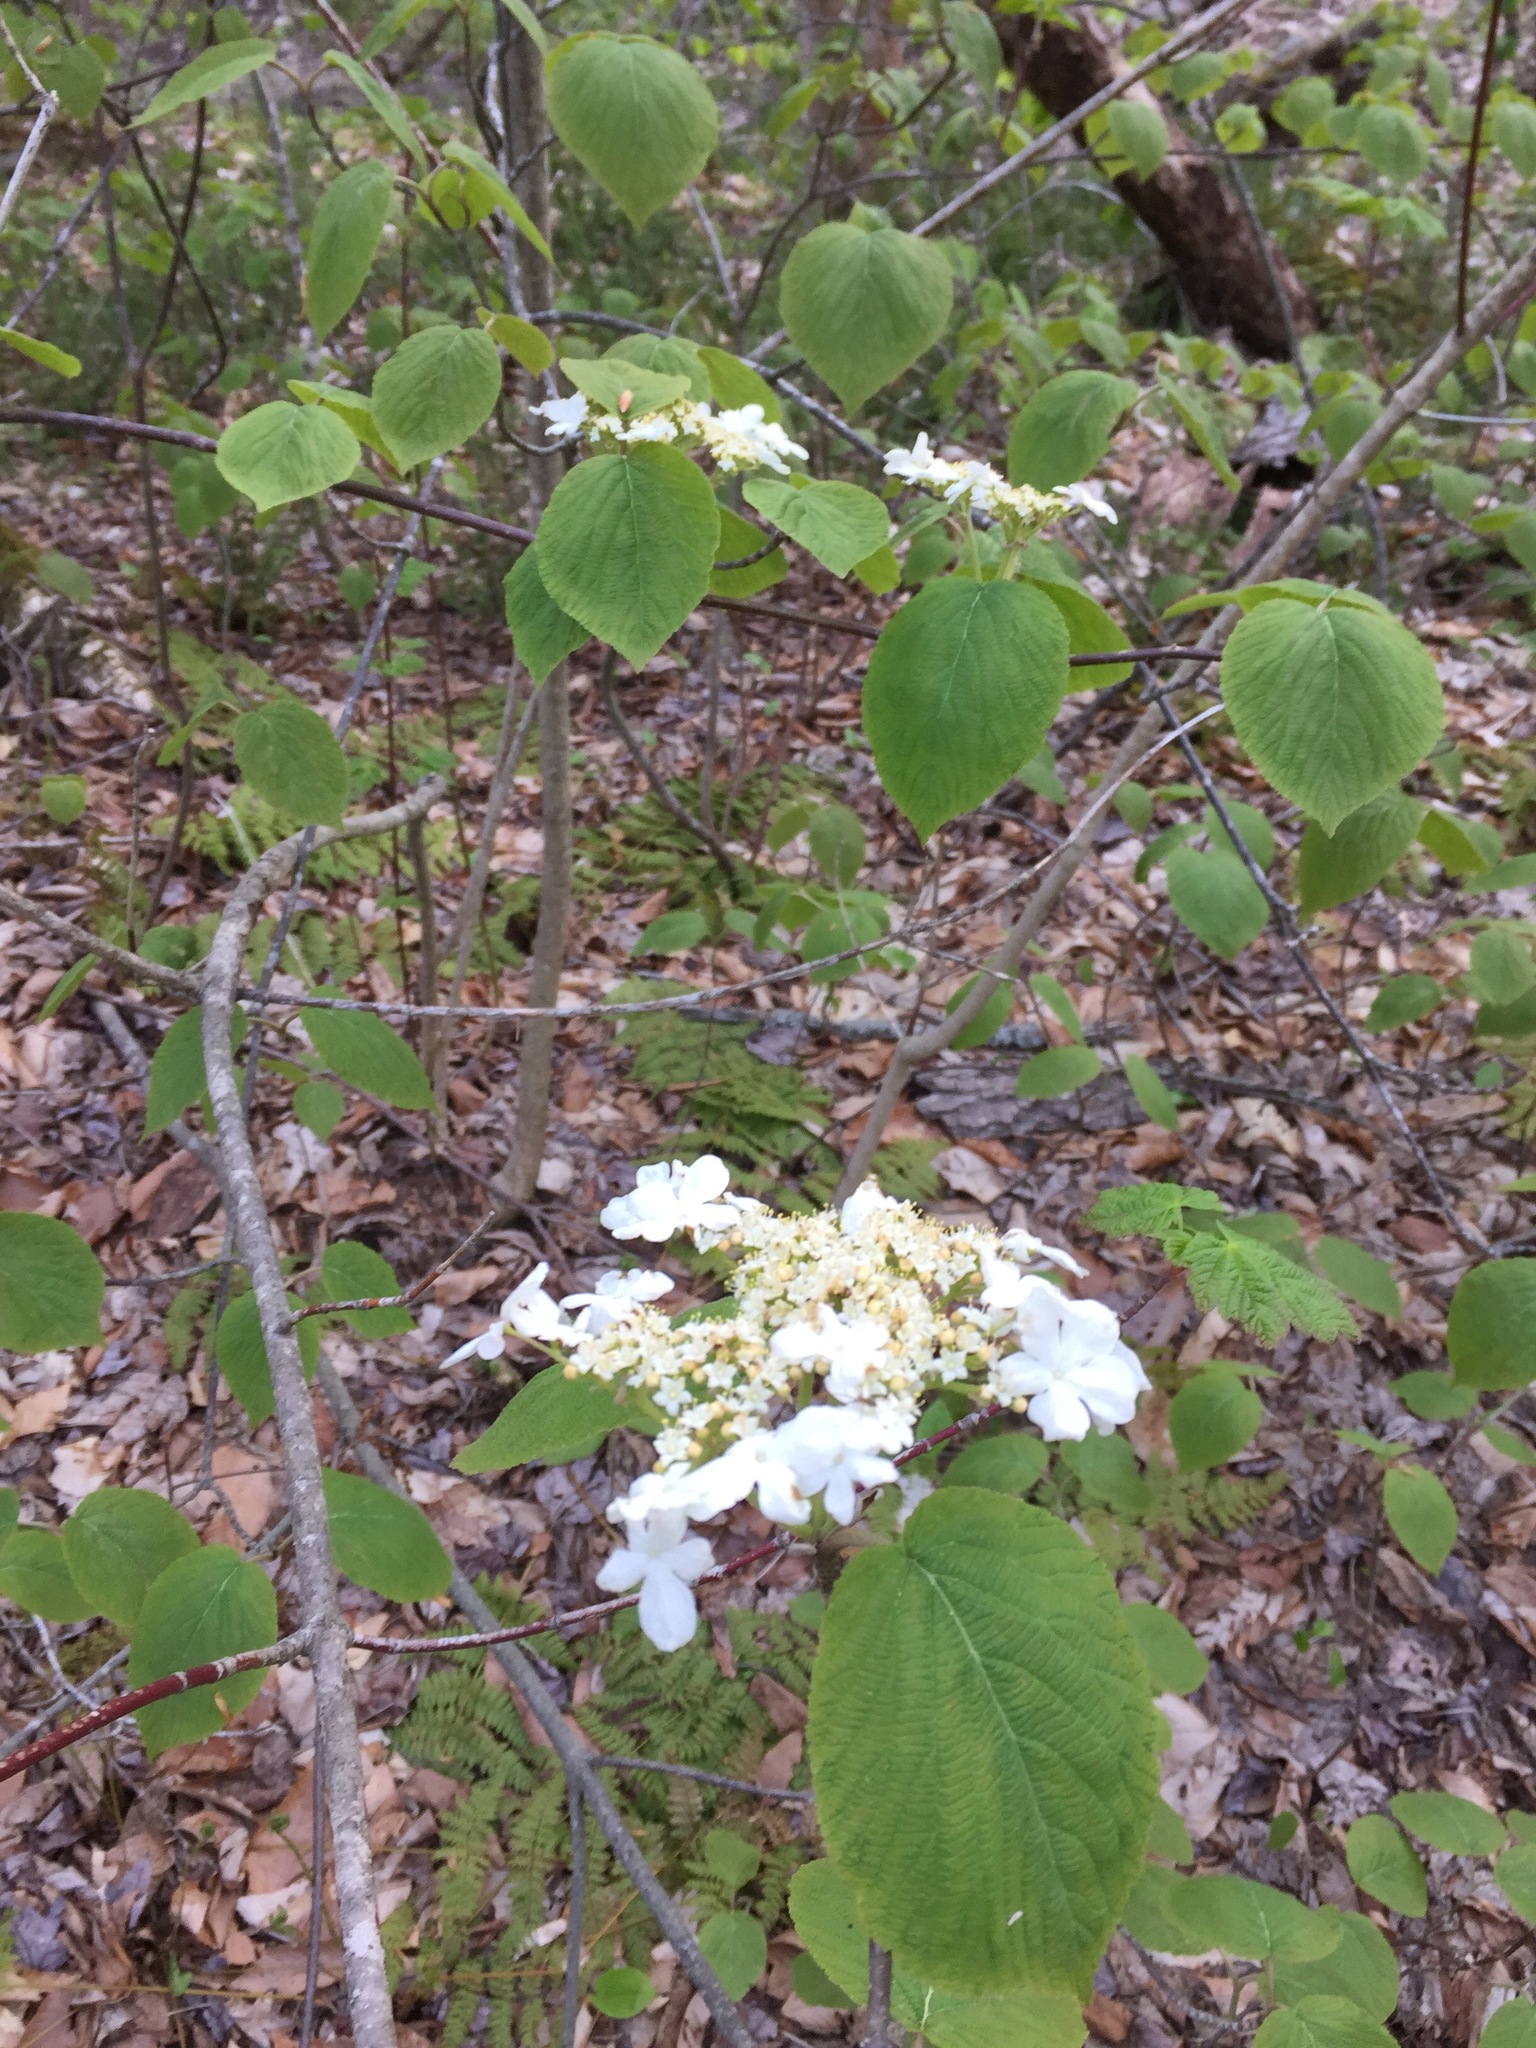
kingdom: Plantae
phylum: Tracheophyta
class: Magnoliopsida
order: Dipsacales
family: Viburnaceae
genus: Viburnum
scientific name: Viburnum lantanoides
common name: Hobblebush
